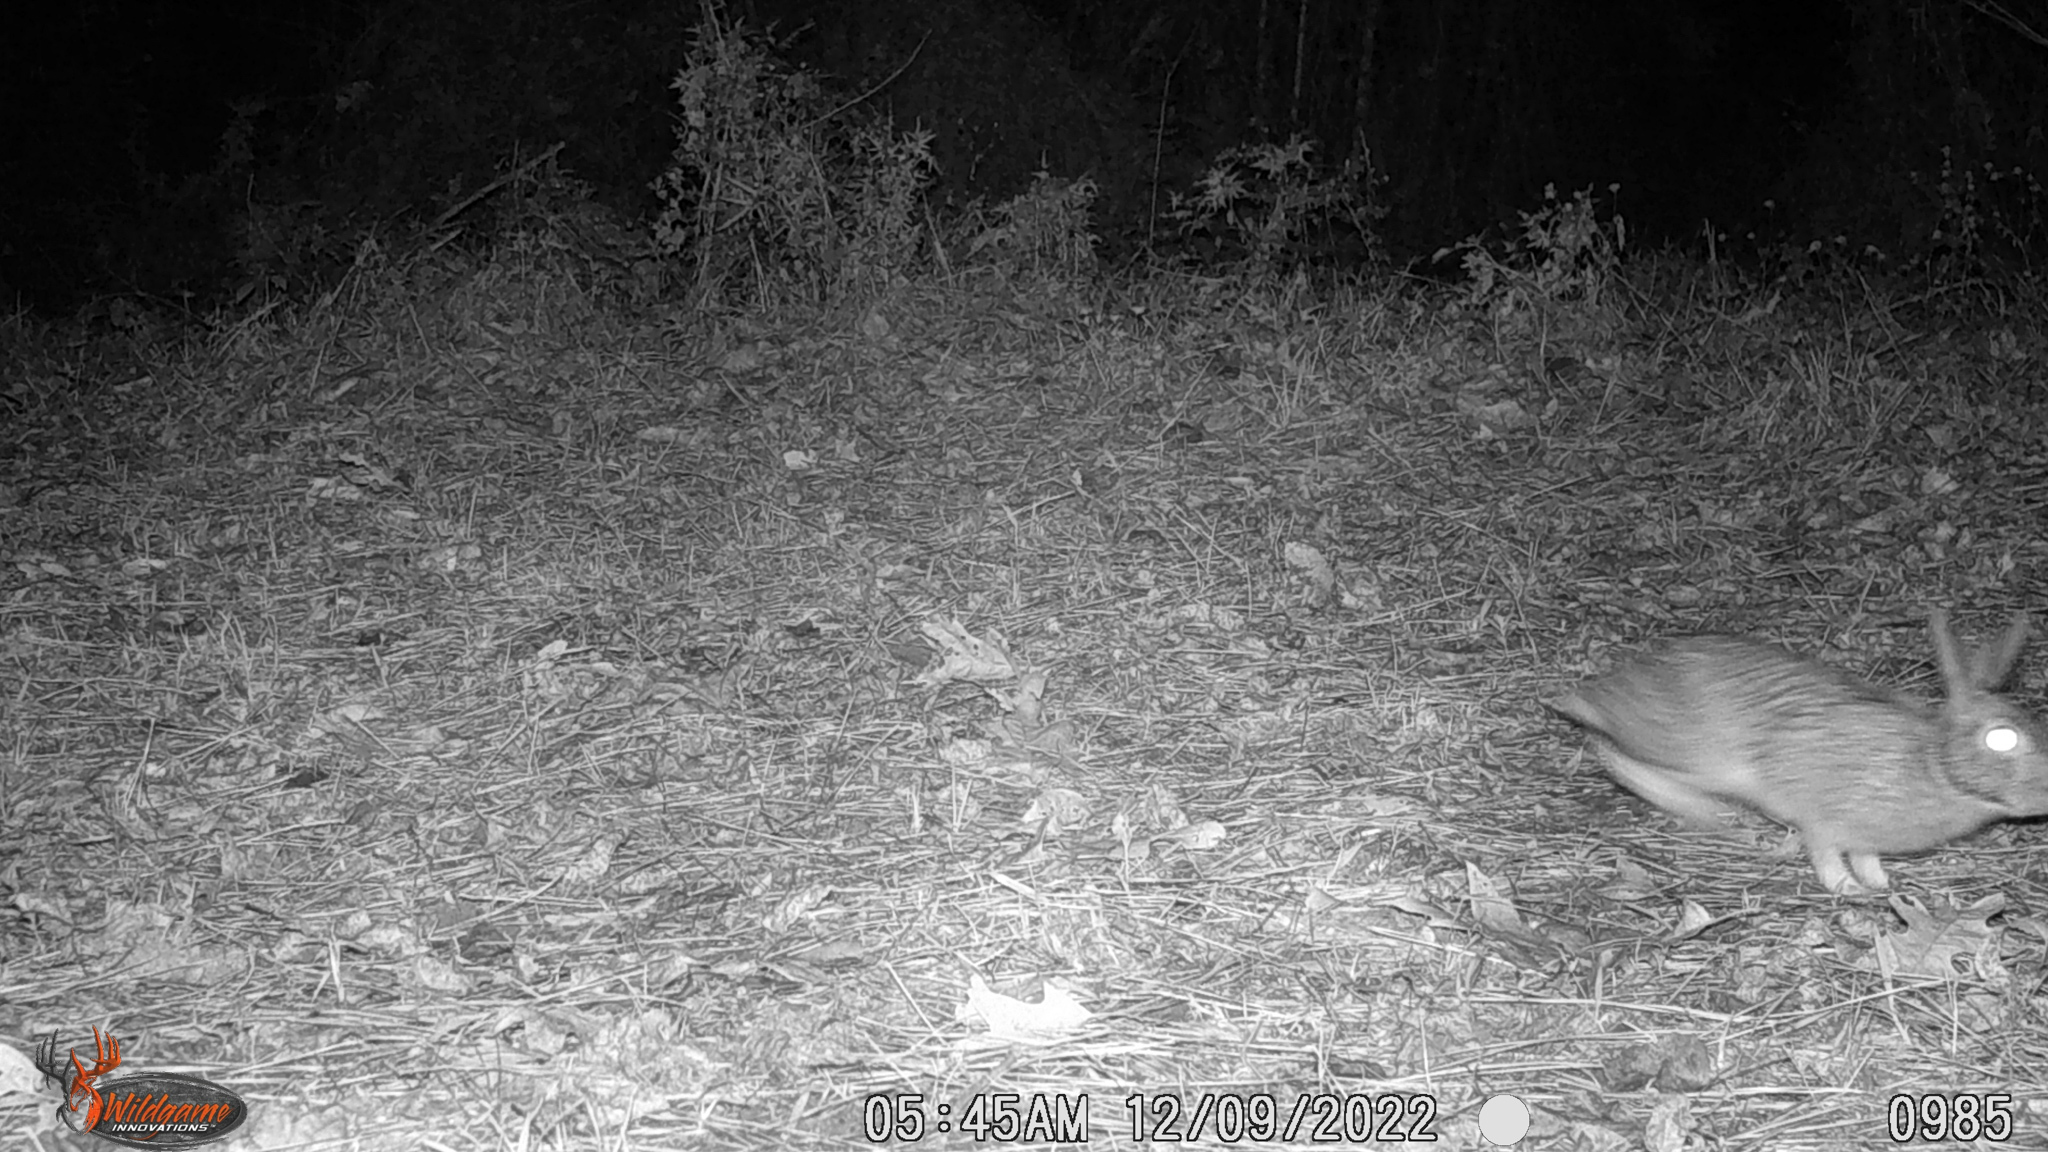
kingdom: Animalia
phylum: Chordata
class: Mammalia
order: Lagomorpha
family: Leporidae
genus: Sylvilagus
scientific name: Sylvilagus floridanus
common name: Eastern cottontail
